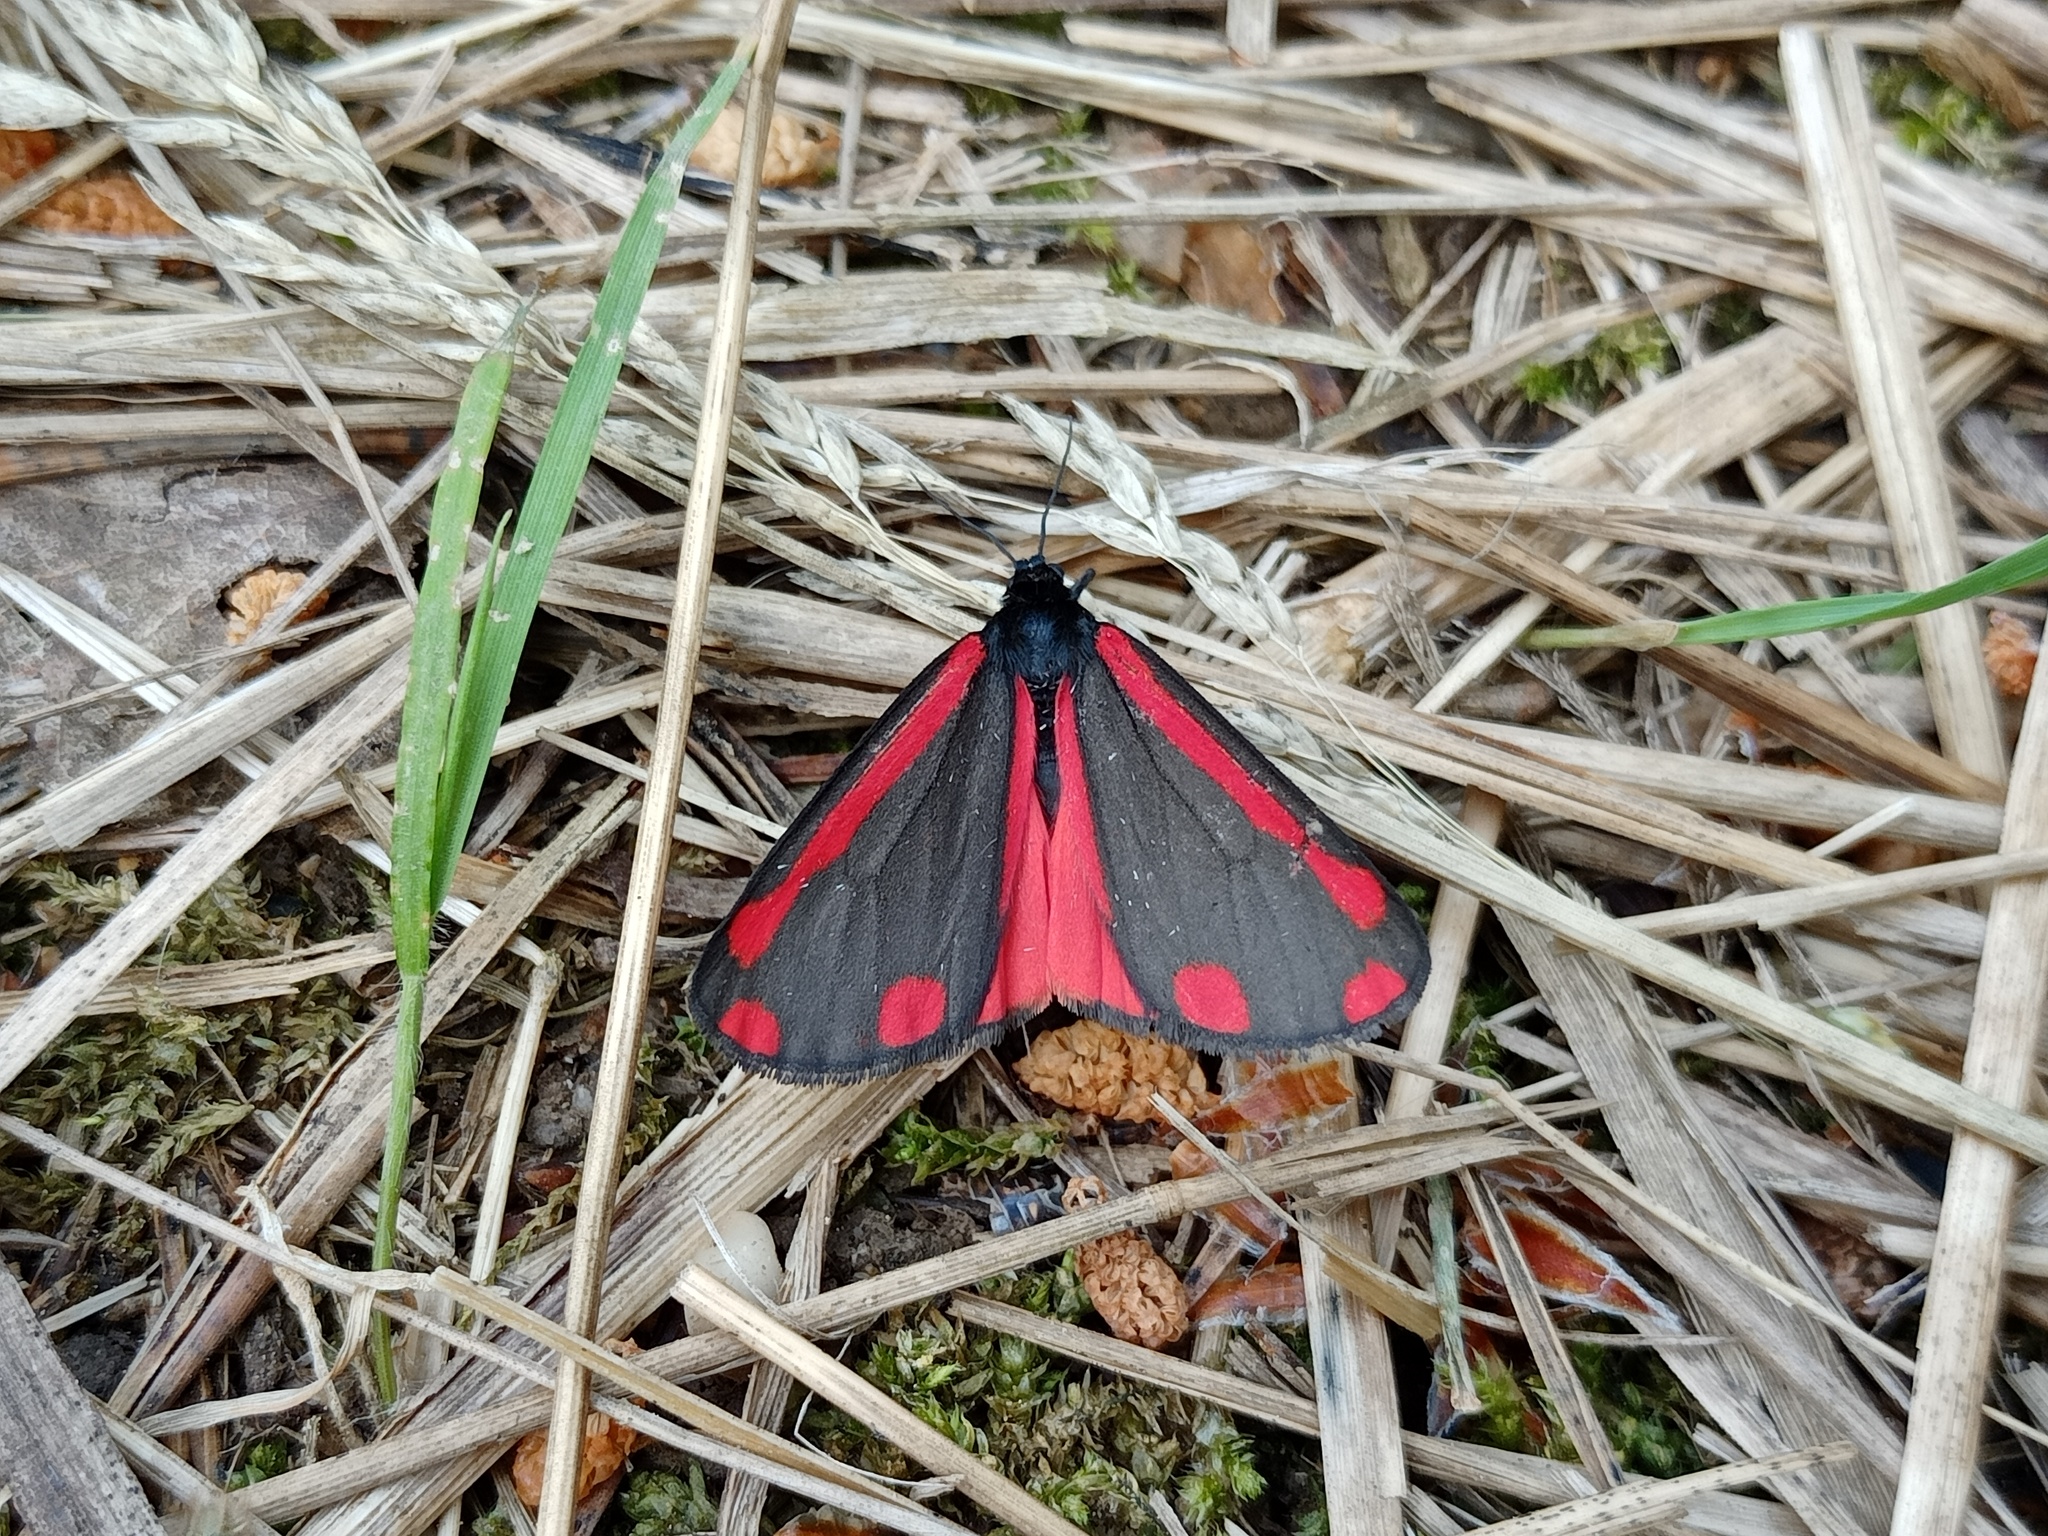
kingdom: Animalia
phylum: Arthropoda
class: Insecta
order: Lepidoptera
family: Erebidae
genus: Tyria
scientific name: Tyria jacobaeae
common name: Cinnabar
